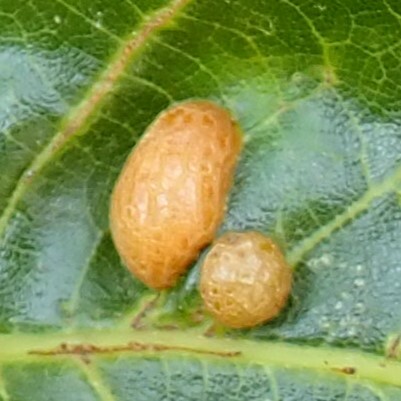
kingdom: Animalia
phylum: Arthropoda
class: Insecta
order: Diptera
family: Cecidomyiidae
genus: Polystepha
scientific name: Polystepha pilulae
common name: Oak leaf gall midge
